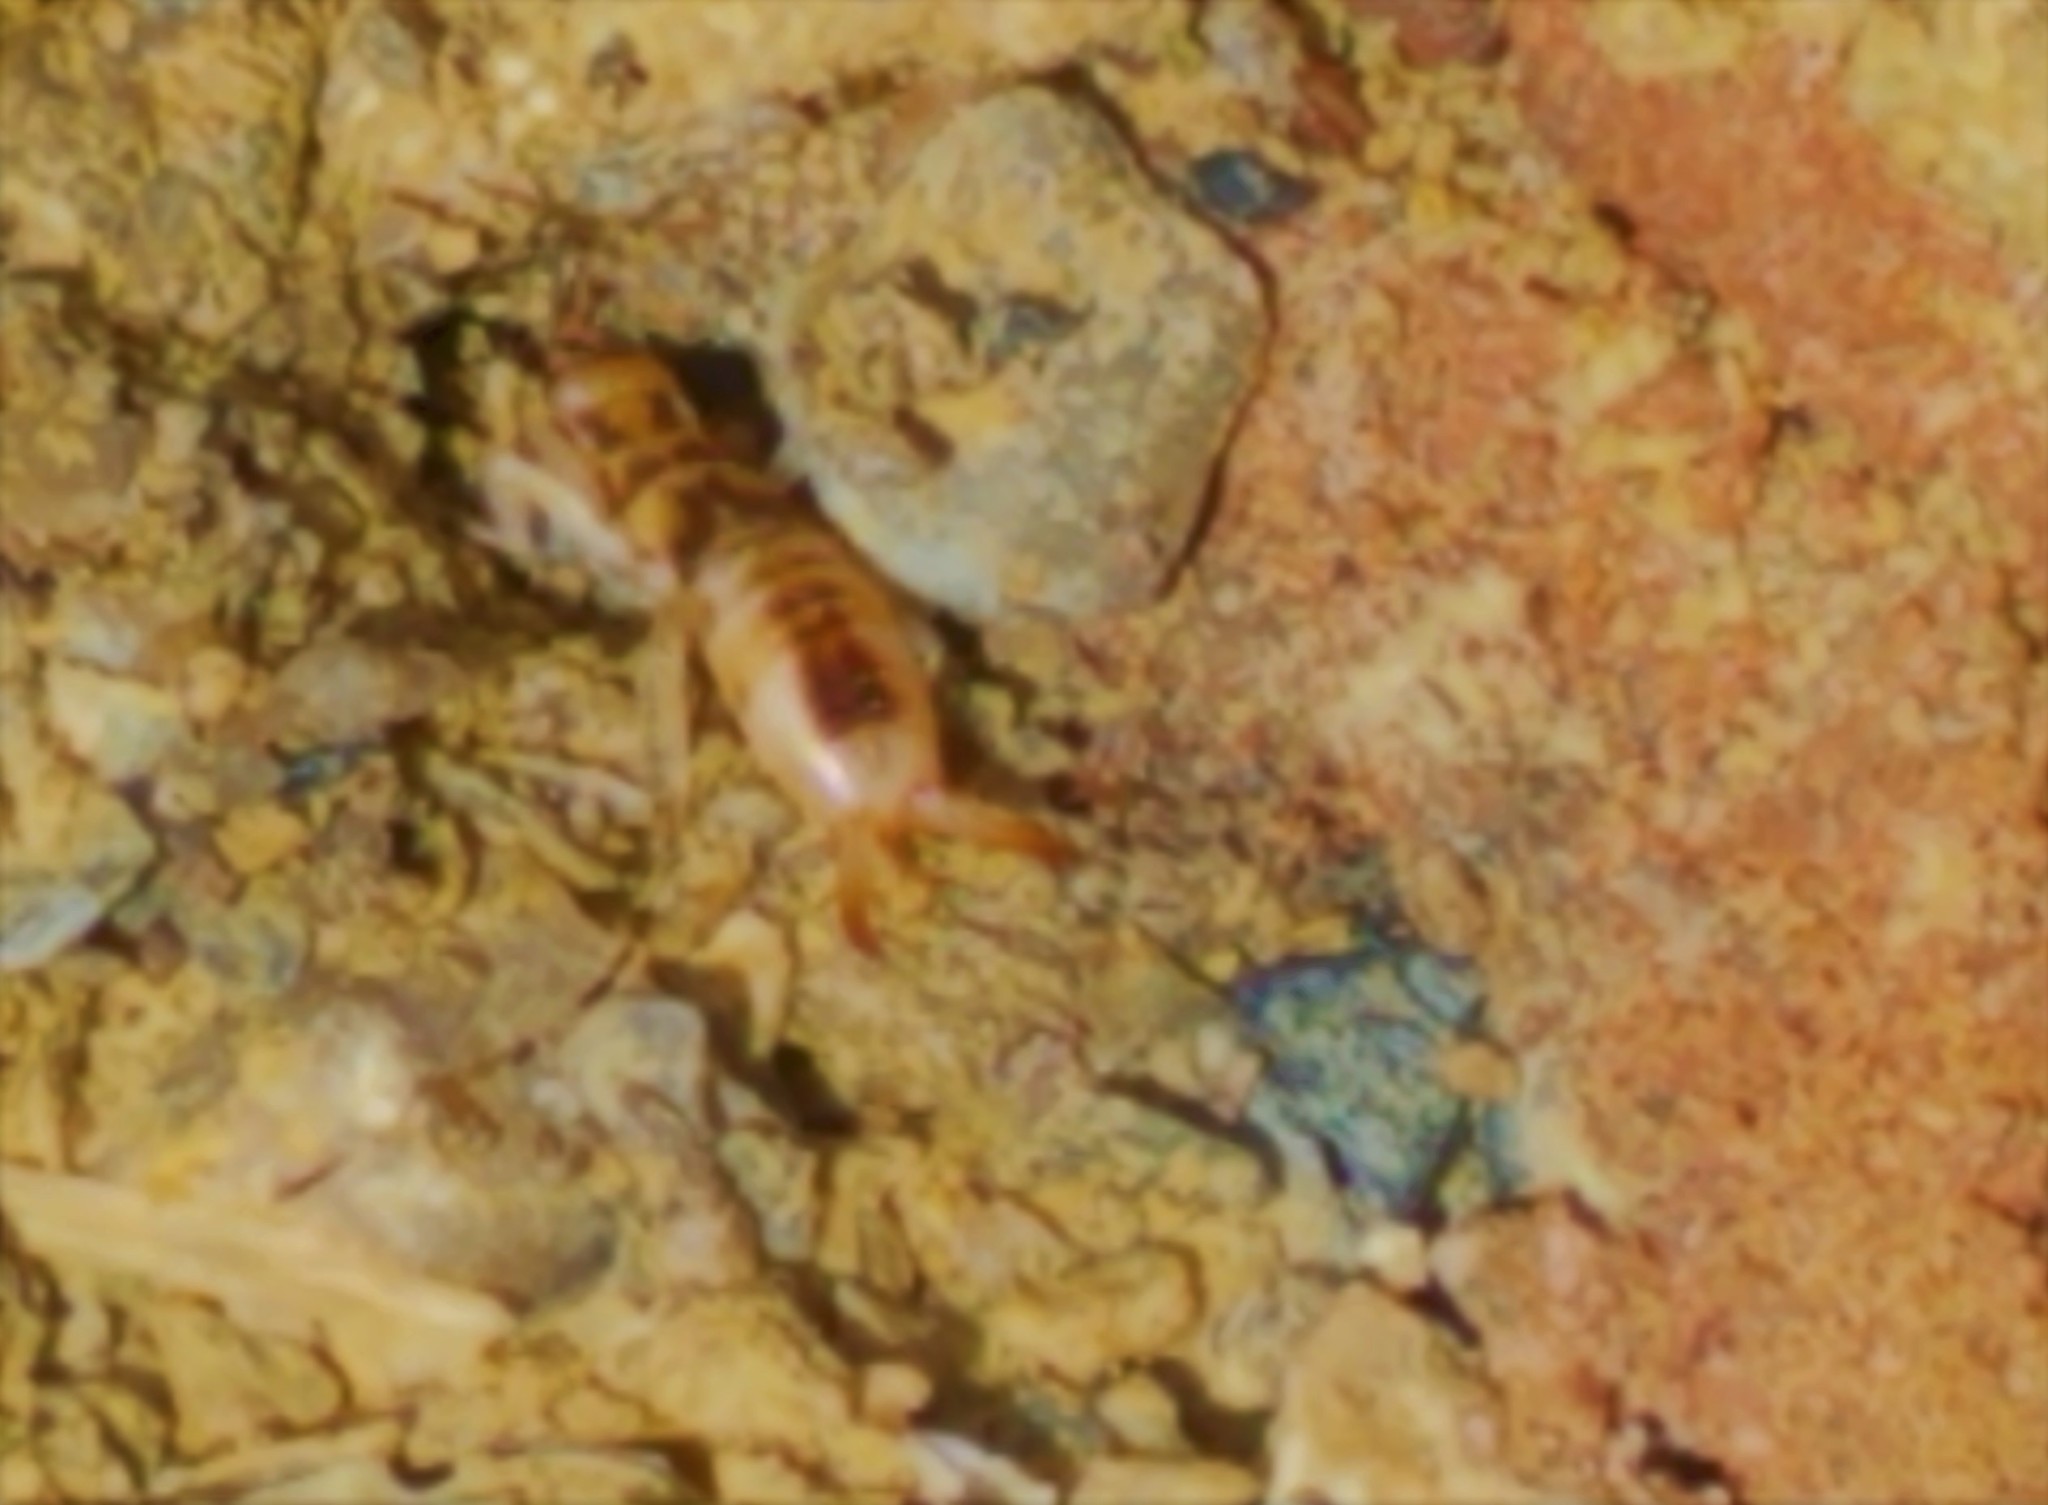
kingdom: Animalia
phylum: Arthropoda
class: Insecta
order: Dermaptera
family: Labiduridae
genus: Labidura
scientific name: Labidura riparia
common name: Striped earwig
